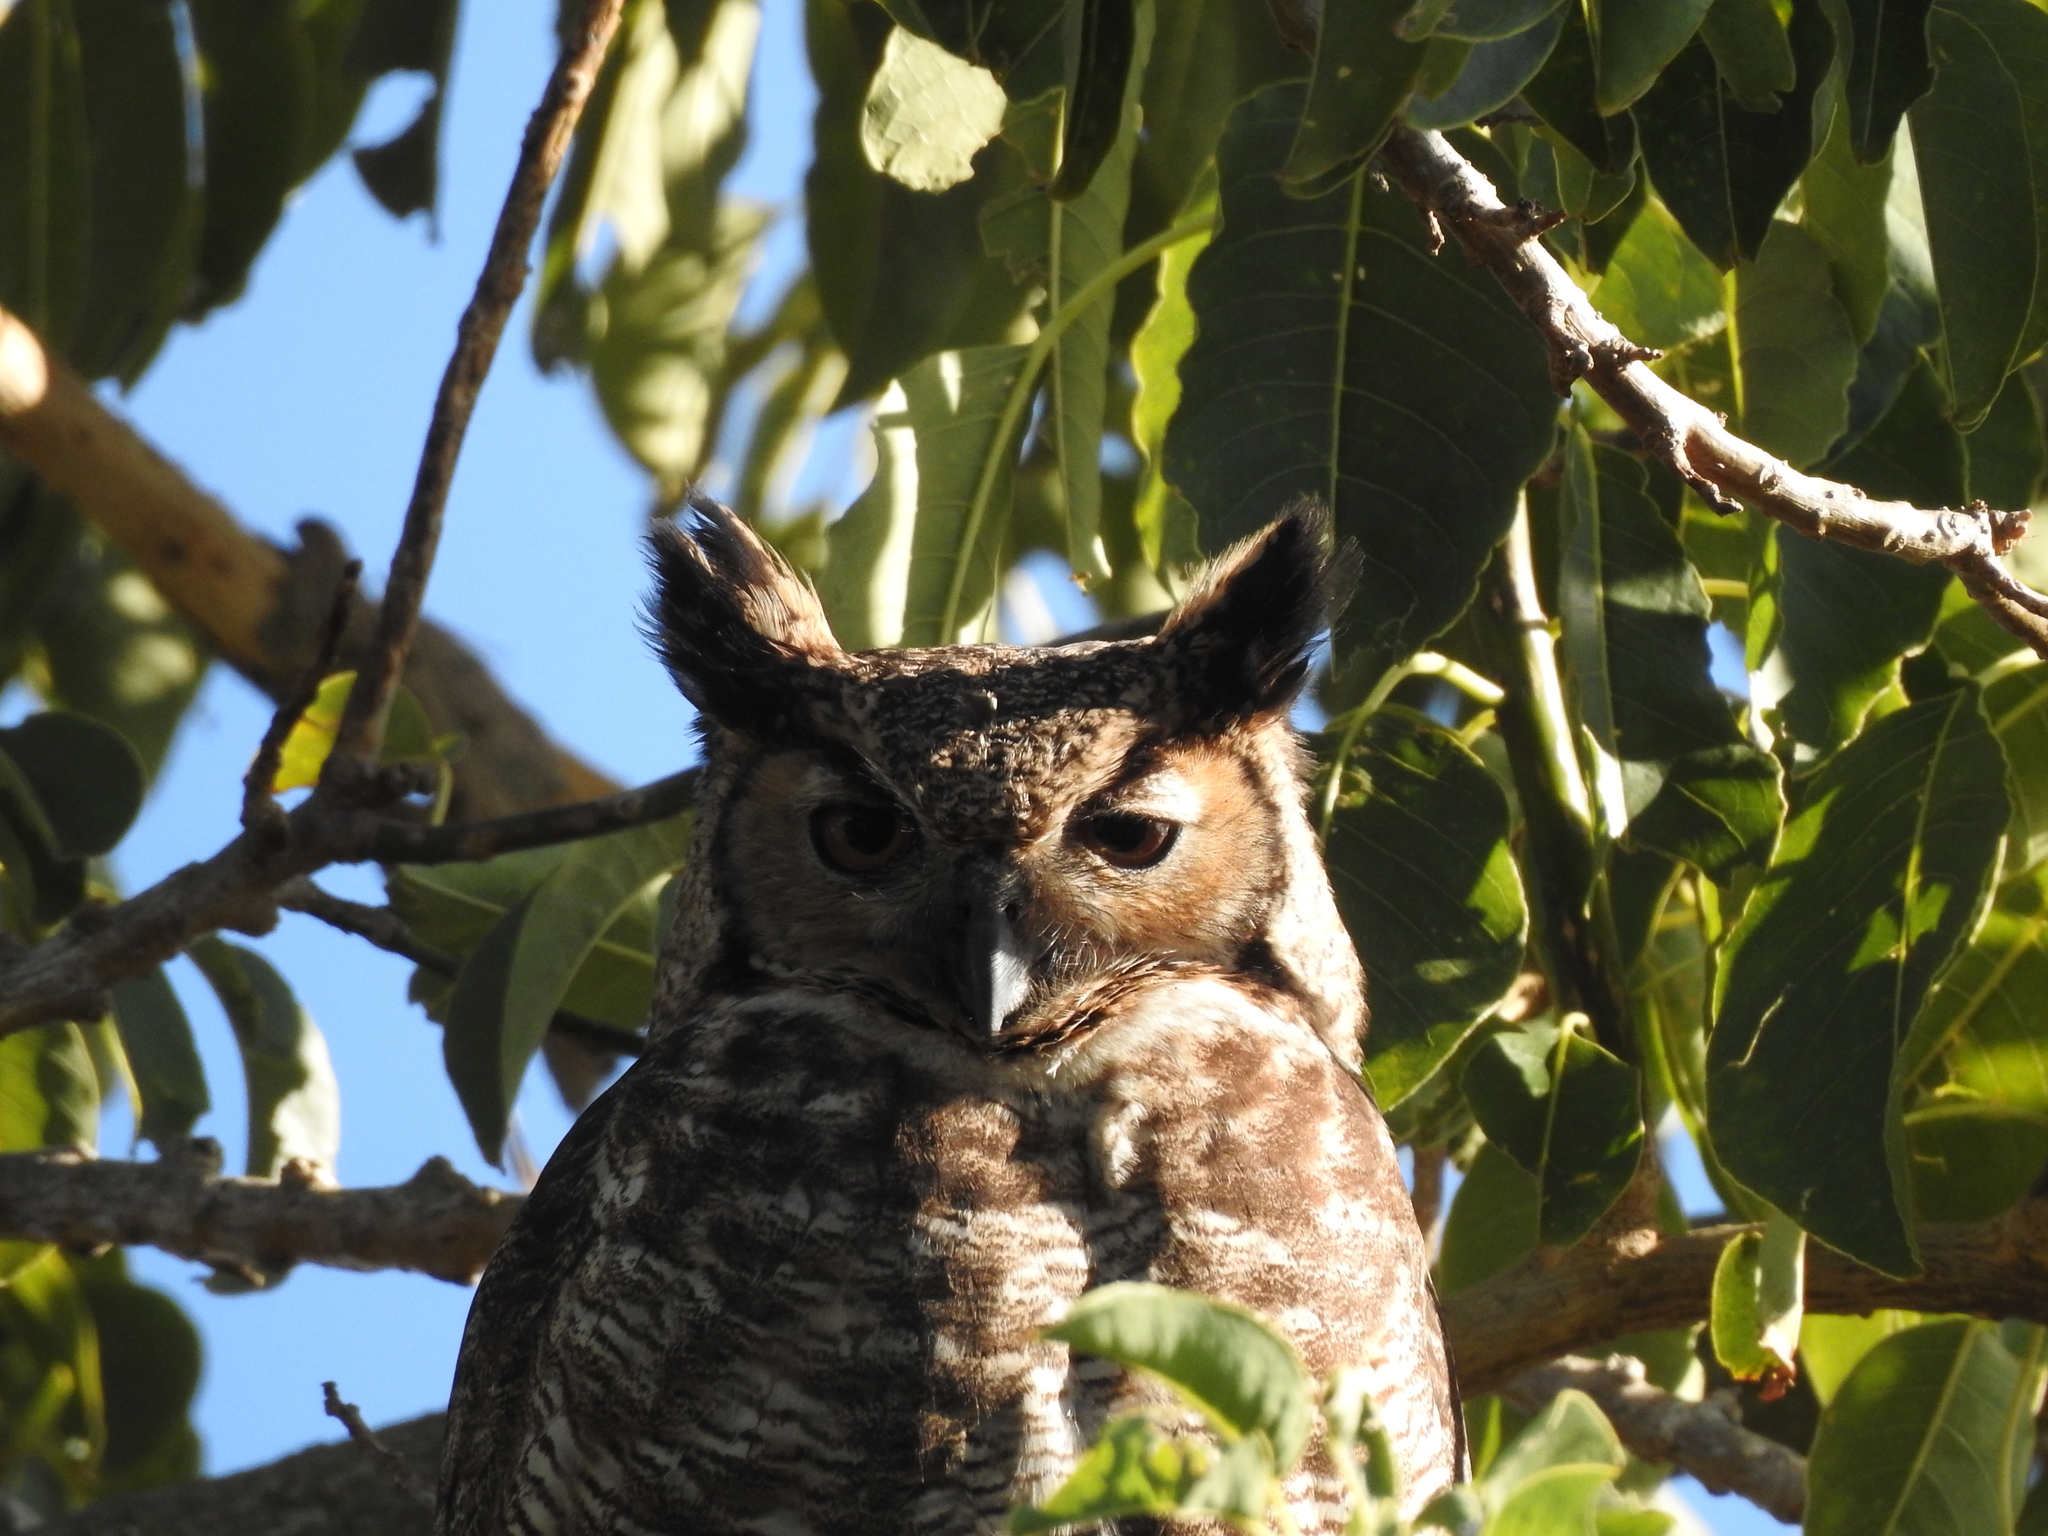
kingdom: Animalia
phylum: Chordata
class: Aves
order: Strigiformes
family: Strigidae
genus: Bubo
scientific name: Bubo virginianus
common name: Great horned owl
